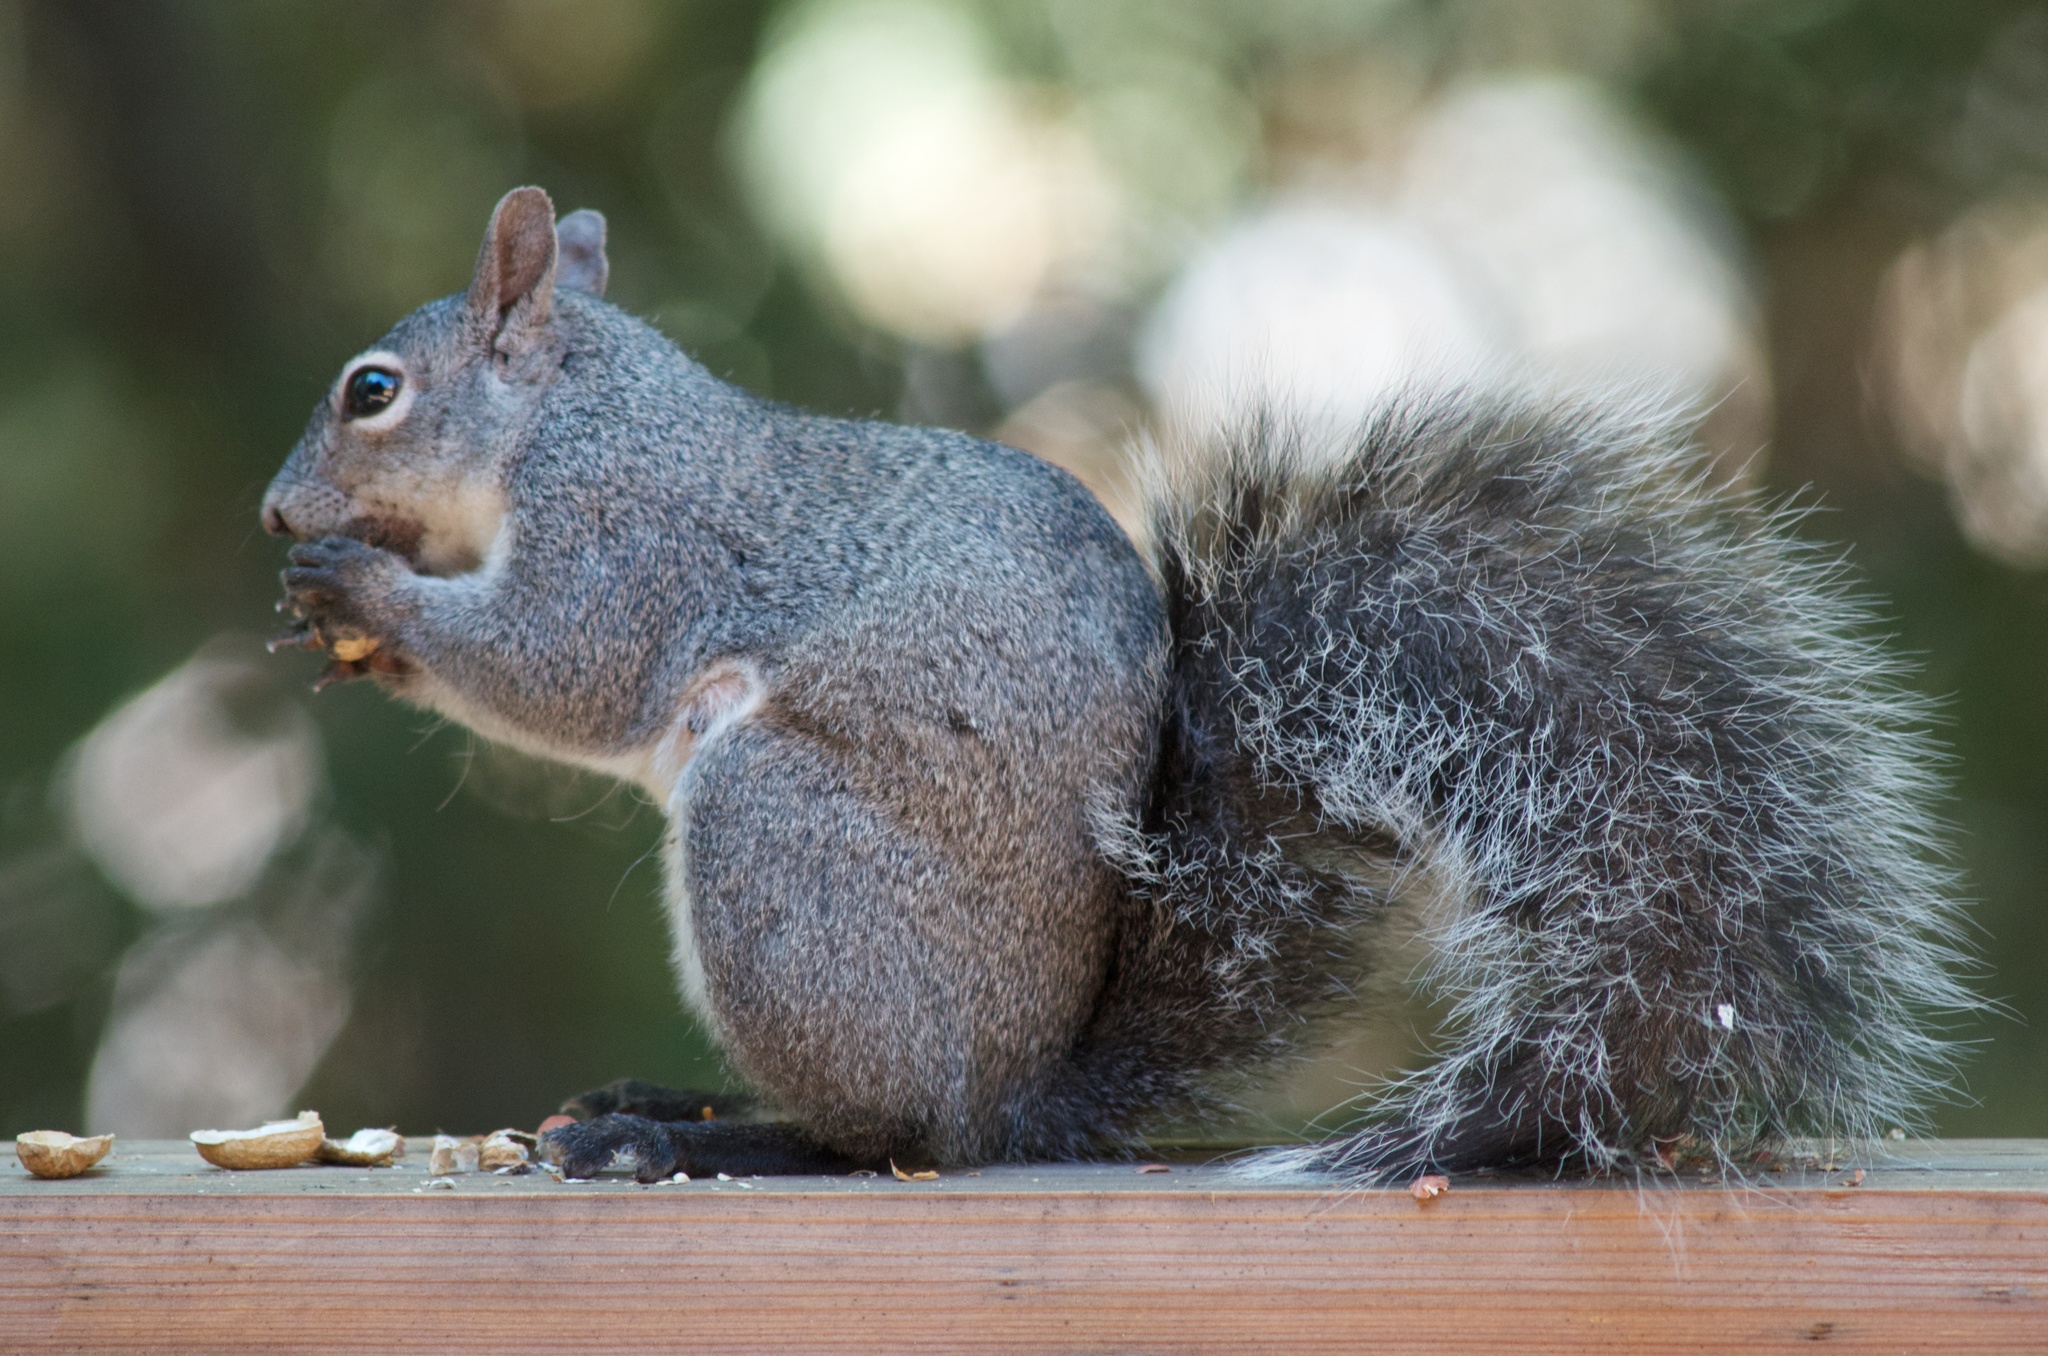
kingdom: Animalia
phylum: Chordata
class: Mammalia
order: Rodentia
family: Sciuridae
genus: Sciurus
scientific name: Sciurus griseus
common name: Western gray squirrel
